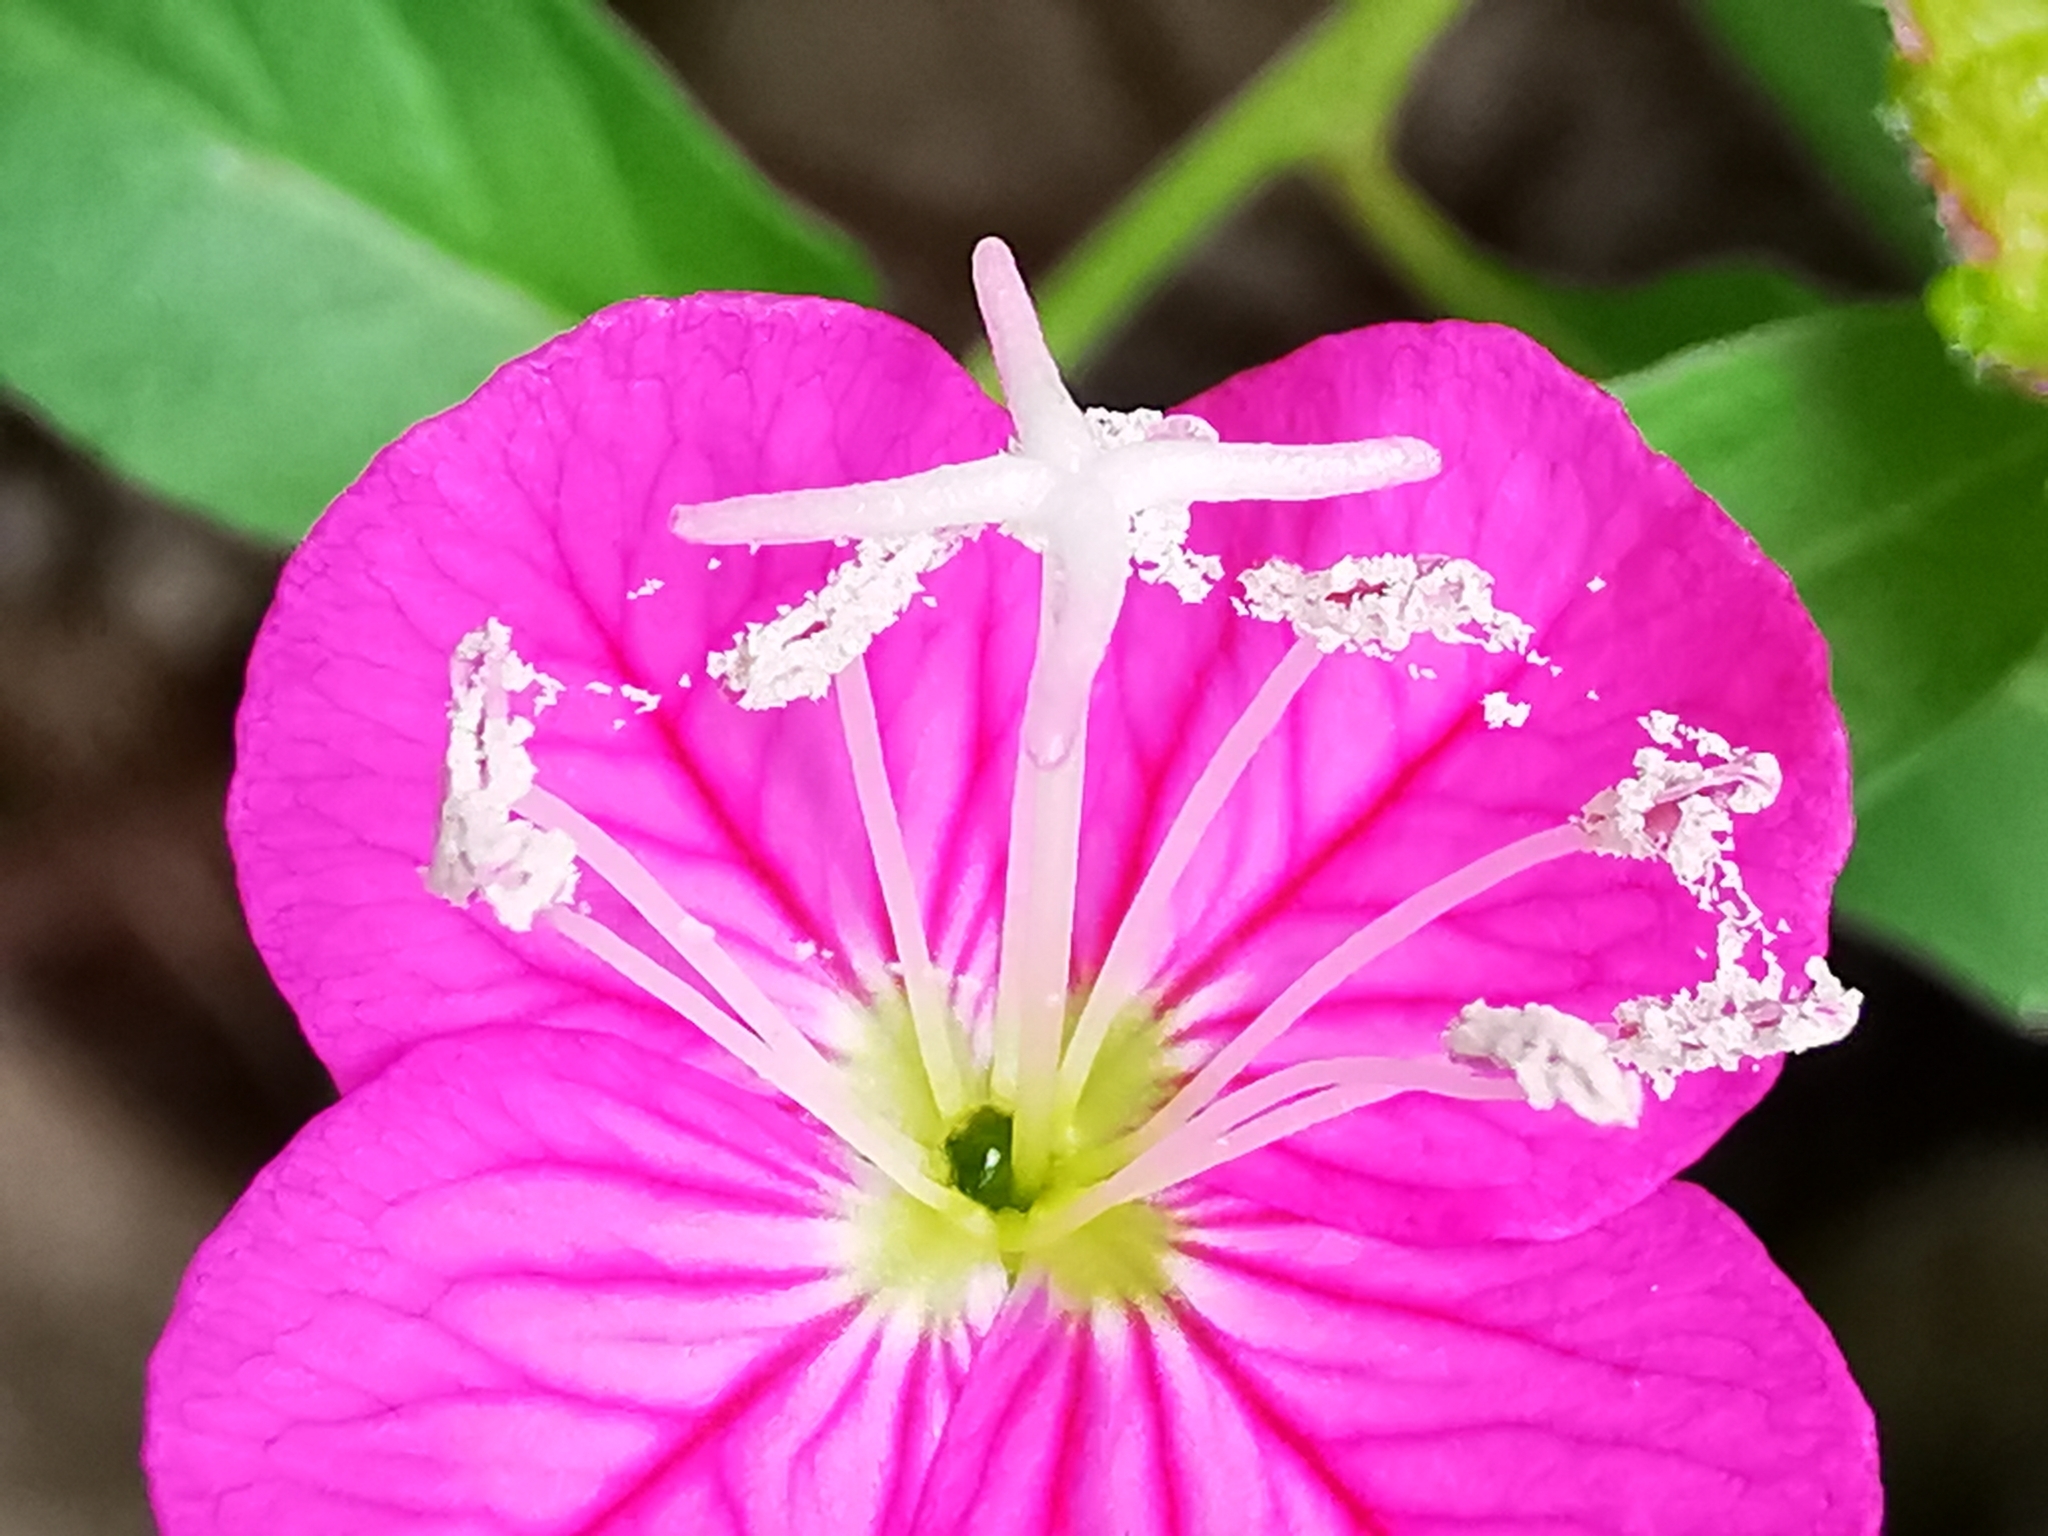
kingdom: Plantae
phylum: Tracheophyta
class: Magnoliopsida
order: Myrtales
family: Onagraceae
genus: Oenothera
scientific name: Oenothera rosea
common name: Rosy evening-primrose
